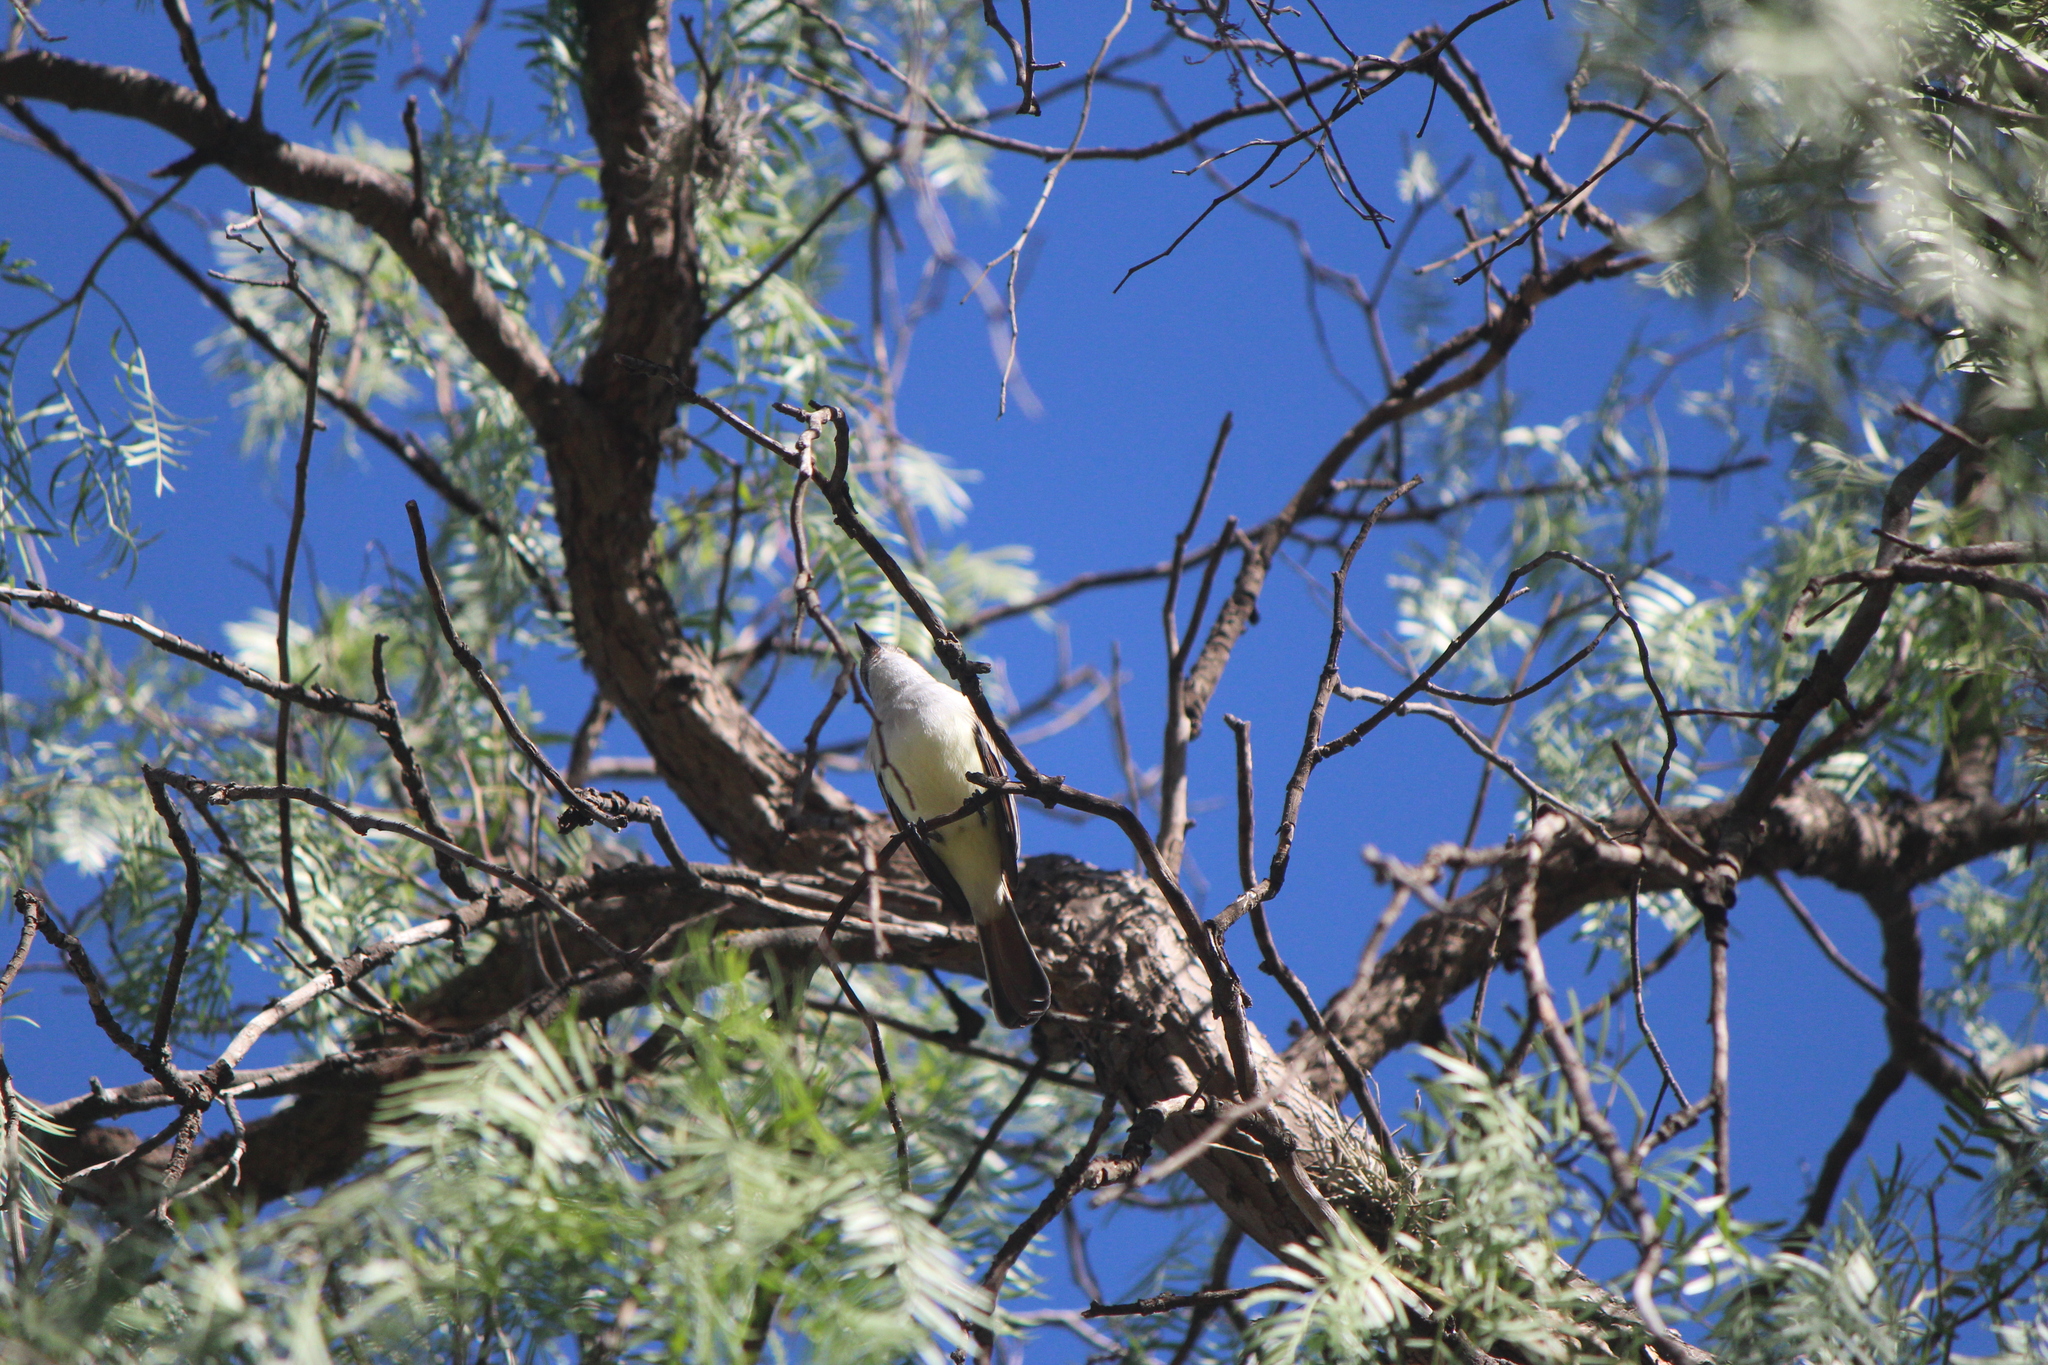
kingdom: Animalia
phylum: Chordata
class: Aves
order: Passeriformes
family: Tyrannidae
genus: Myiarchus
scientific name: Myiarchus cinerascens
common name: Ash-throated flycatcher
